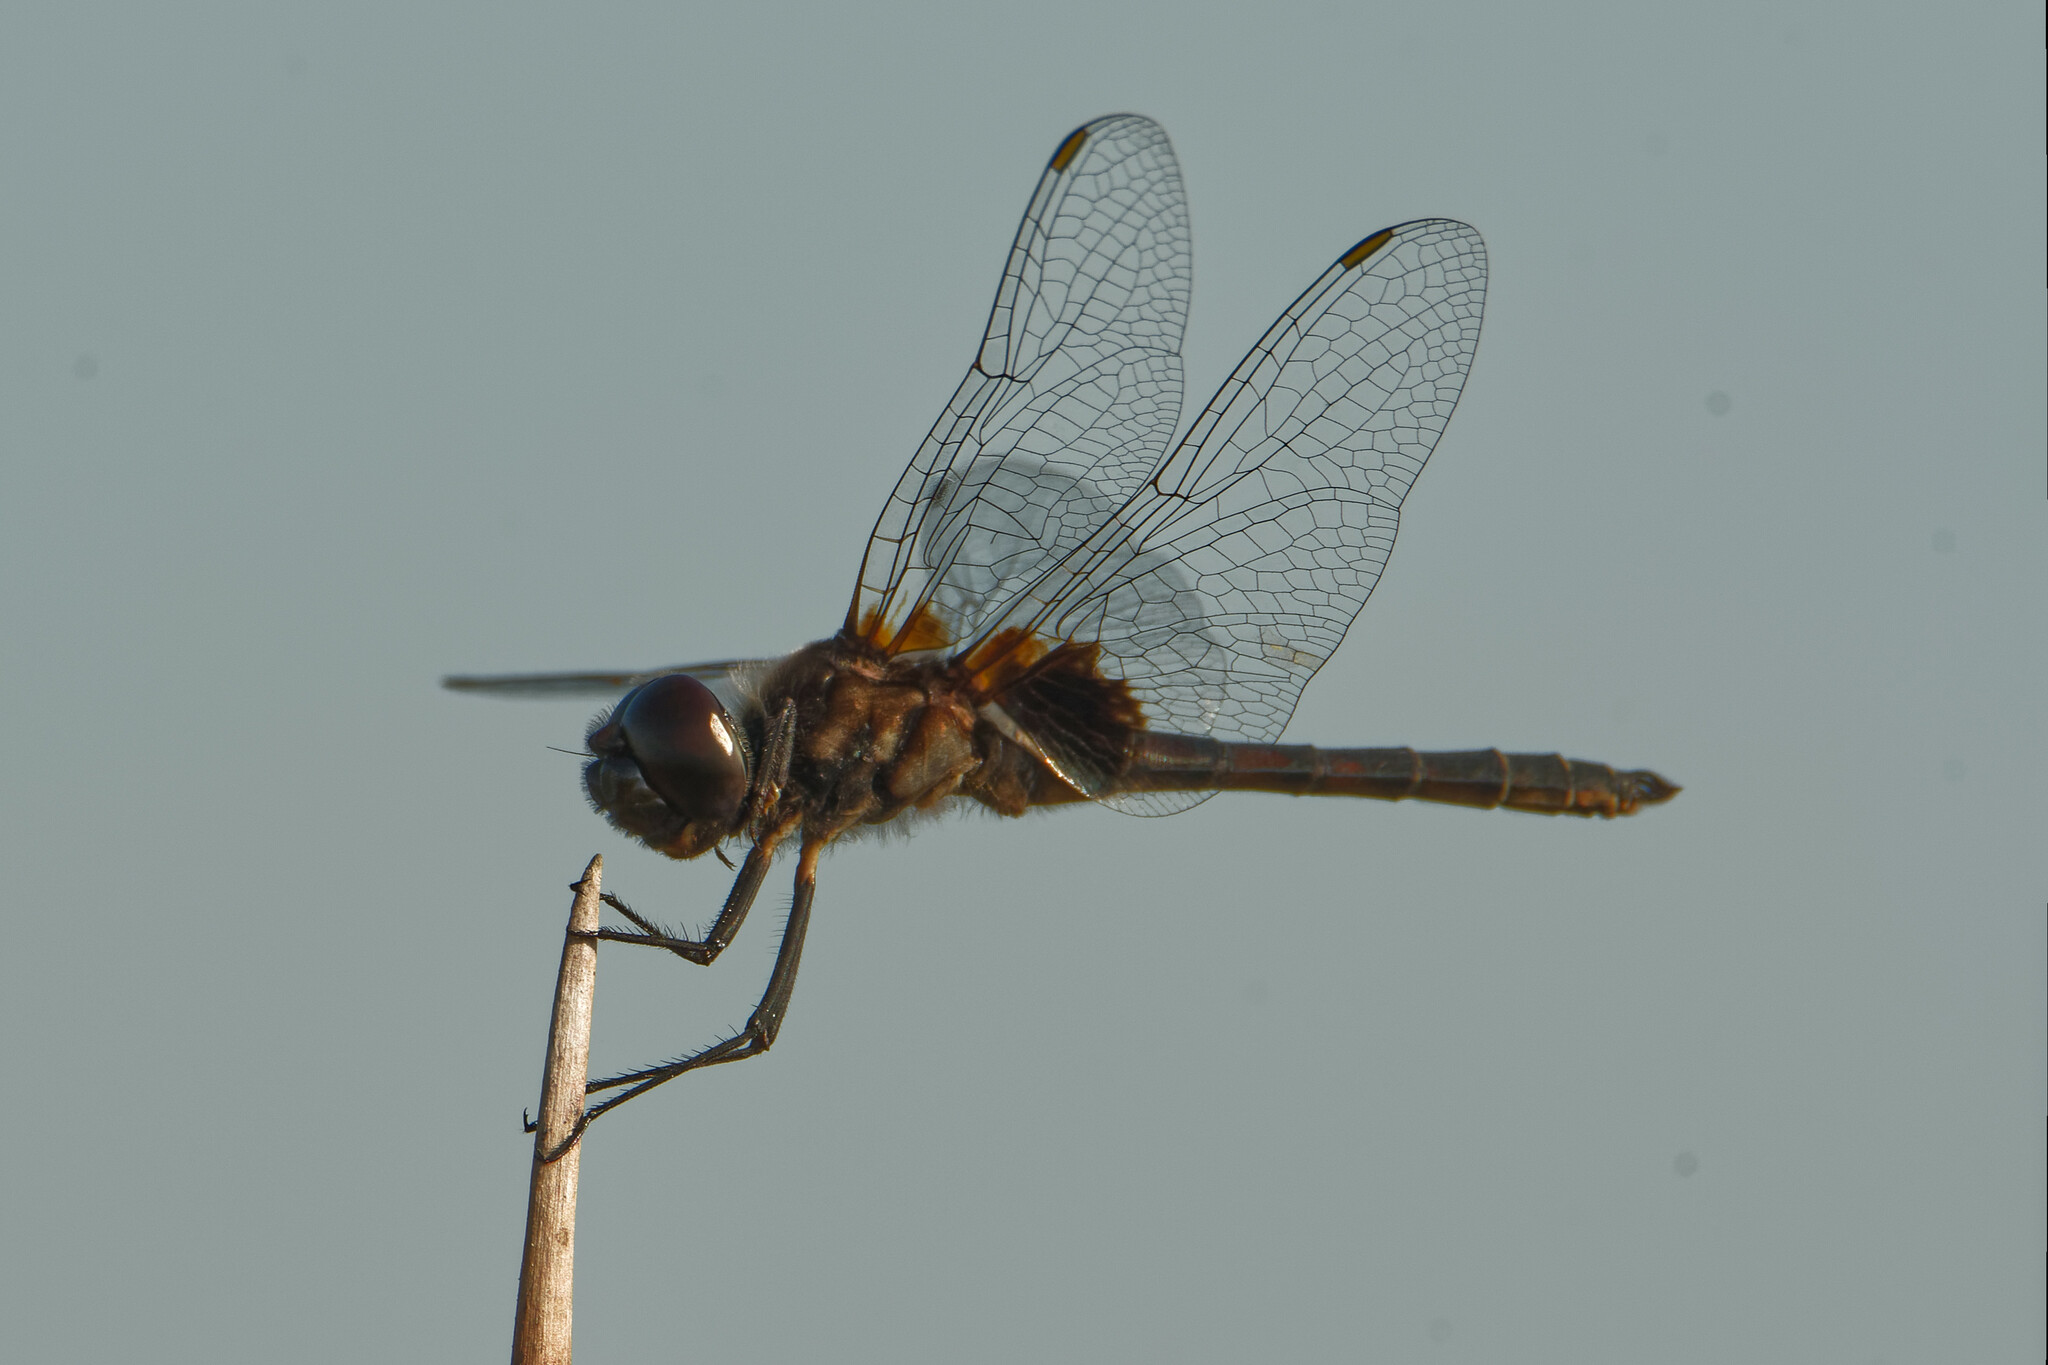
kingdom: Animalia
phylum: Arthropoda
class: Insecta
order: Odonata
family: Libellulidae
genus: Macrodiplax
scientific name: Macrodiplax balteata
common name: Marl pennant
